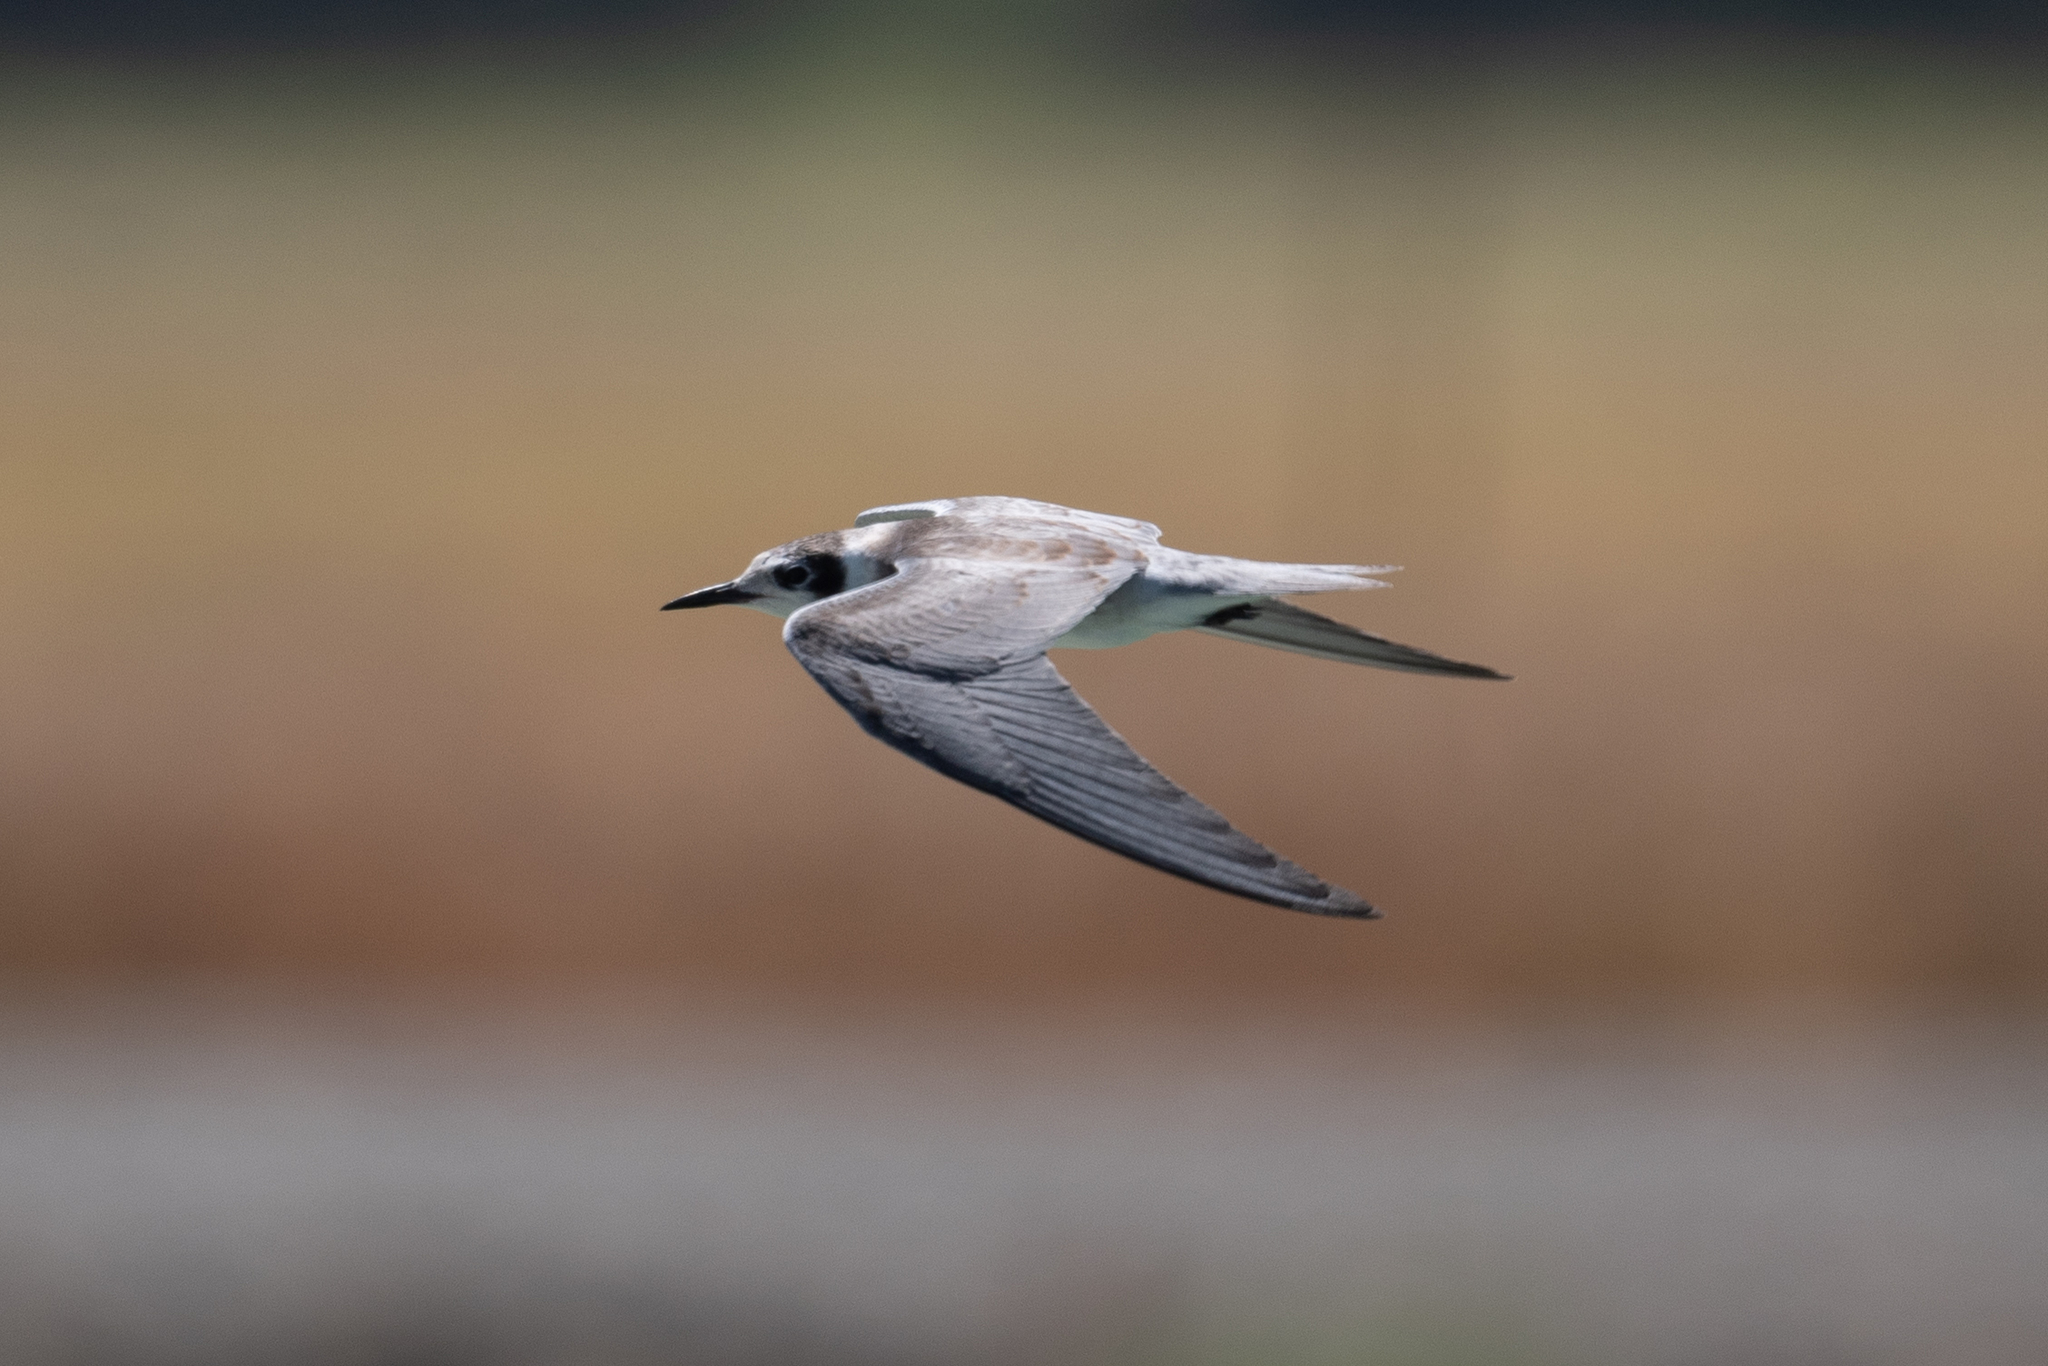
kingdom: Animalia
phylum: Chordata
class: Aves
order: Charadriiformes
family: Laridae
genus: Chlidonias
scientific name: Chlidonias niger
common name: Black tern
